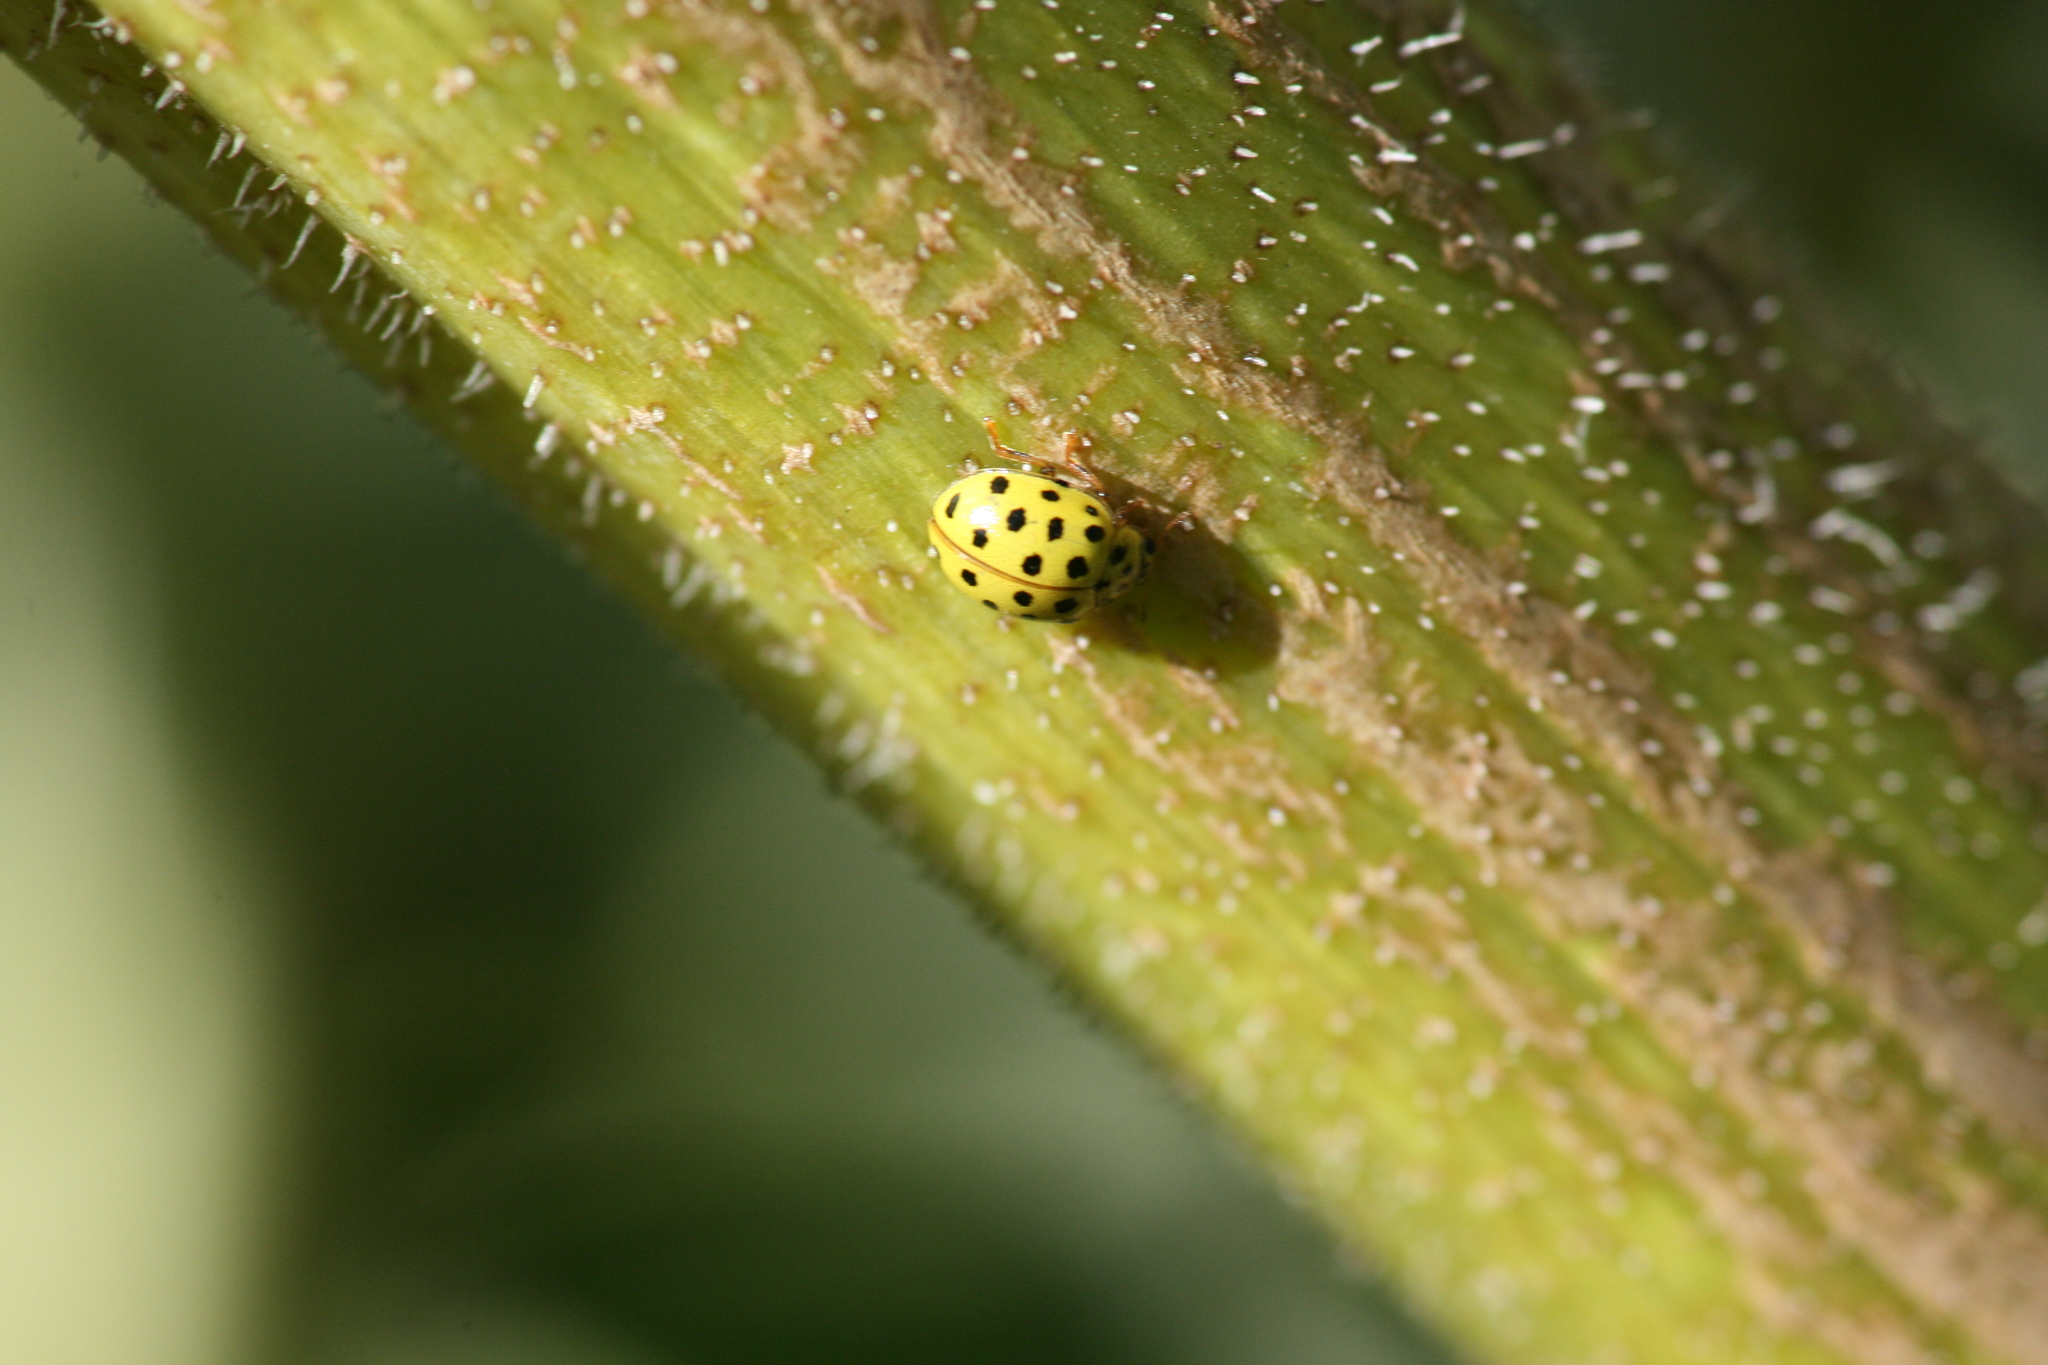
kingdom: Animalia
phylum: Arthropoda
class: Insecta
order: Coleoptera
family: Coccinellidae
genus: Psyllobora
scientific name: Psyllobora vigintiduopunctata
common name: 22-spot ladybird
